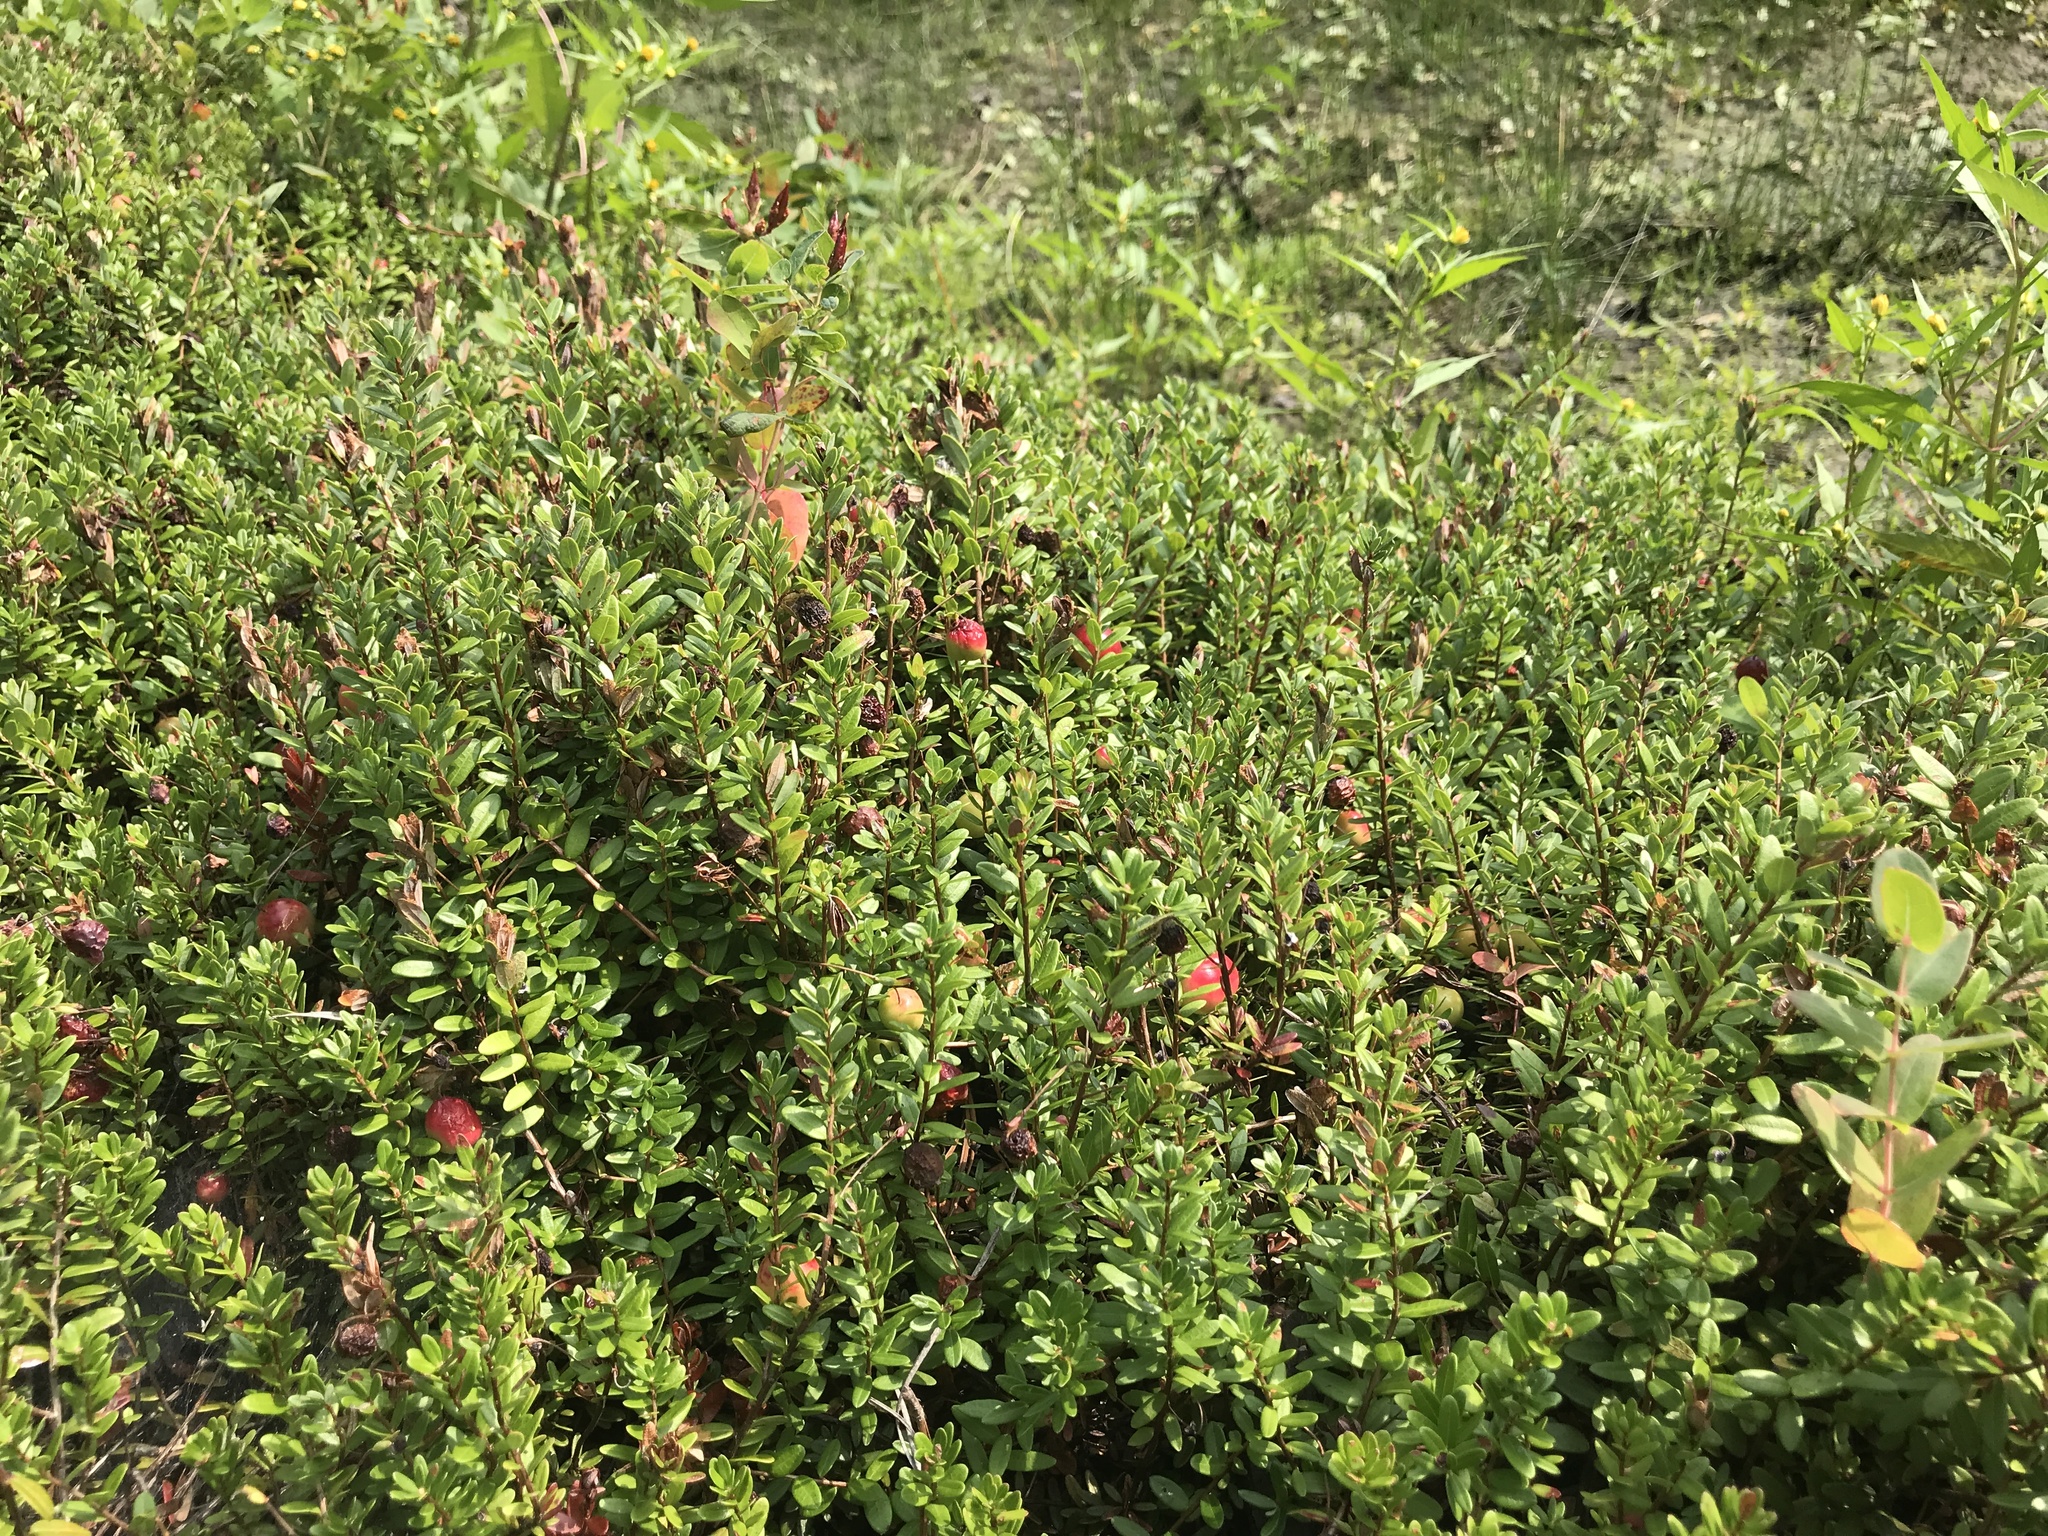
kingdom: Plantae
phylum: Tracheophyta
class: Magnoliopsida
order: Ericales
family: Ericaceae
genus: Vaccinium
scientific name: Vaccinium macrocarpon
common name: American cranberry
